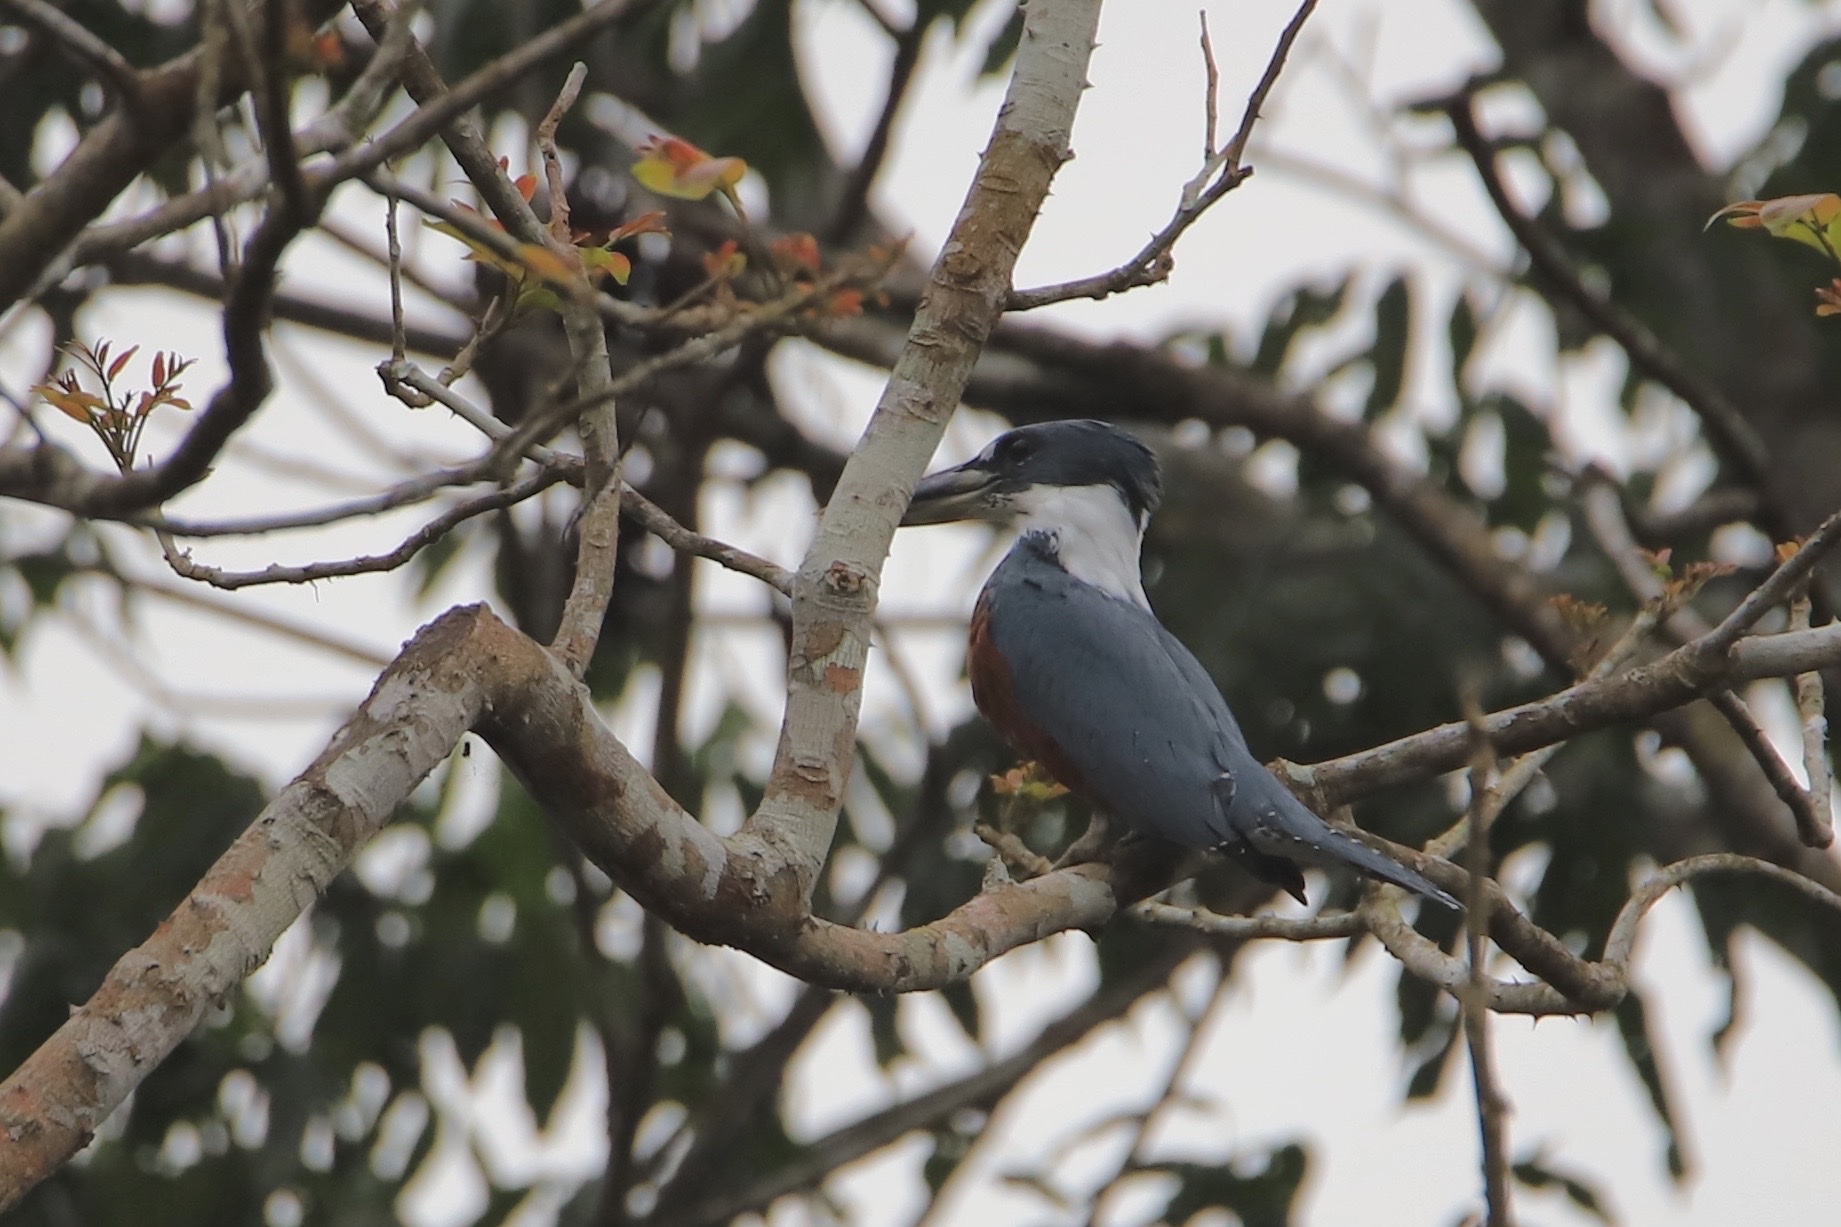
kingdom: Animalia
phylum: Chordata
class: Aves
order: Coraciiformes
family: Alcedinidae
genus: Megaceryle
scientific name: Megaceryle torquata
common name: Ringed kingfisher
